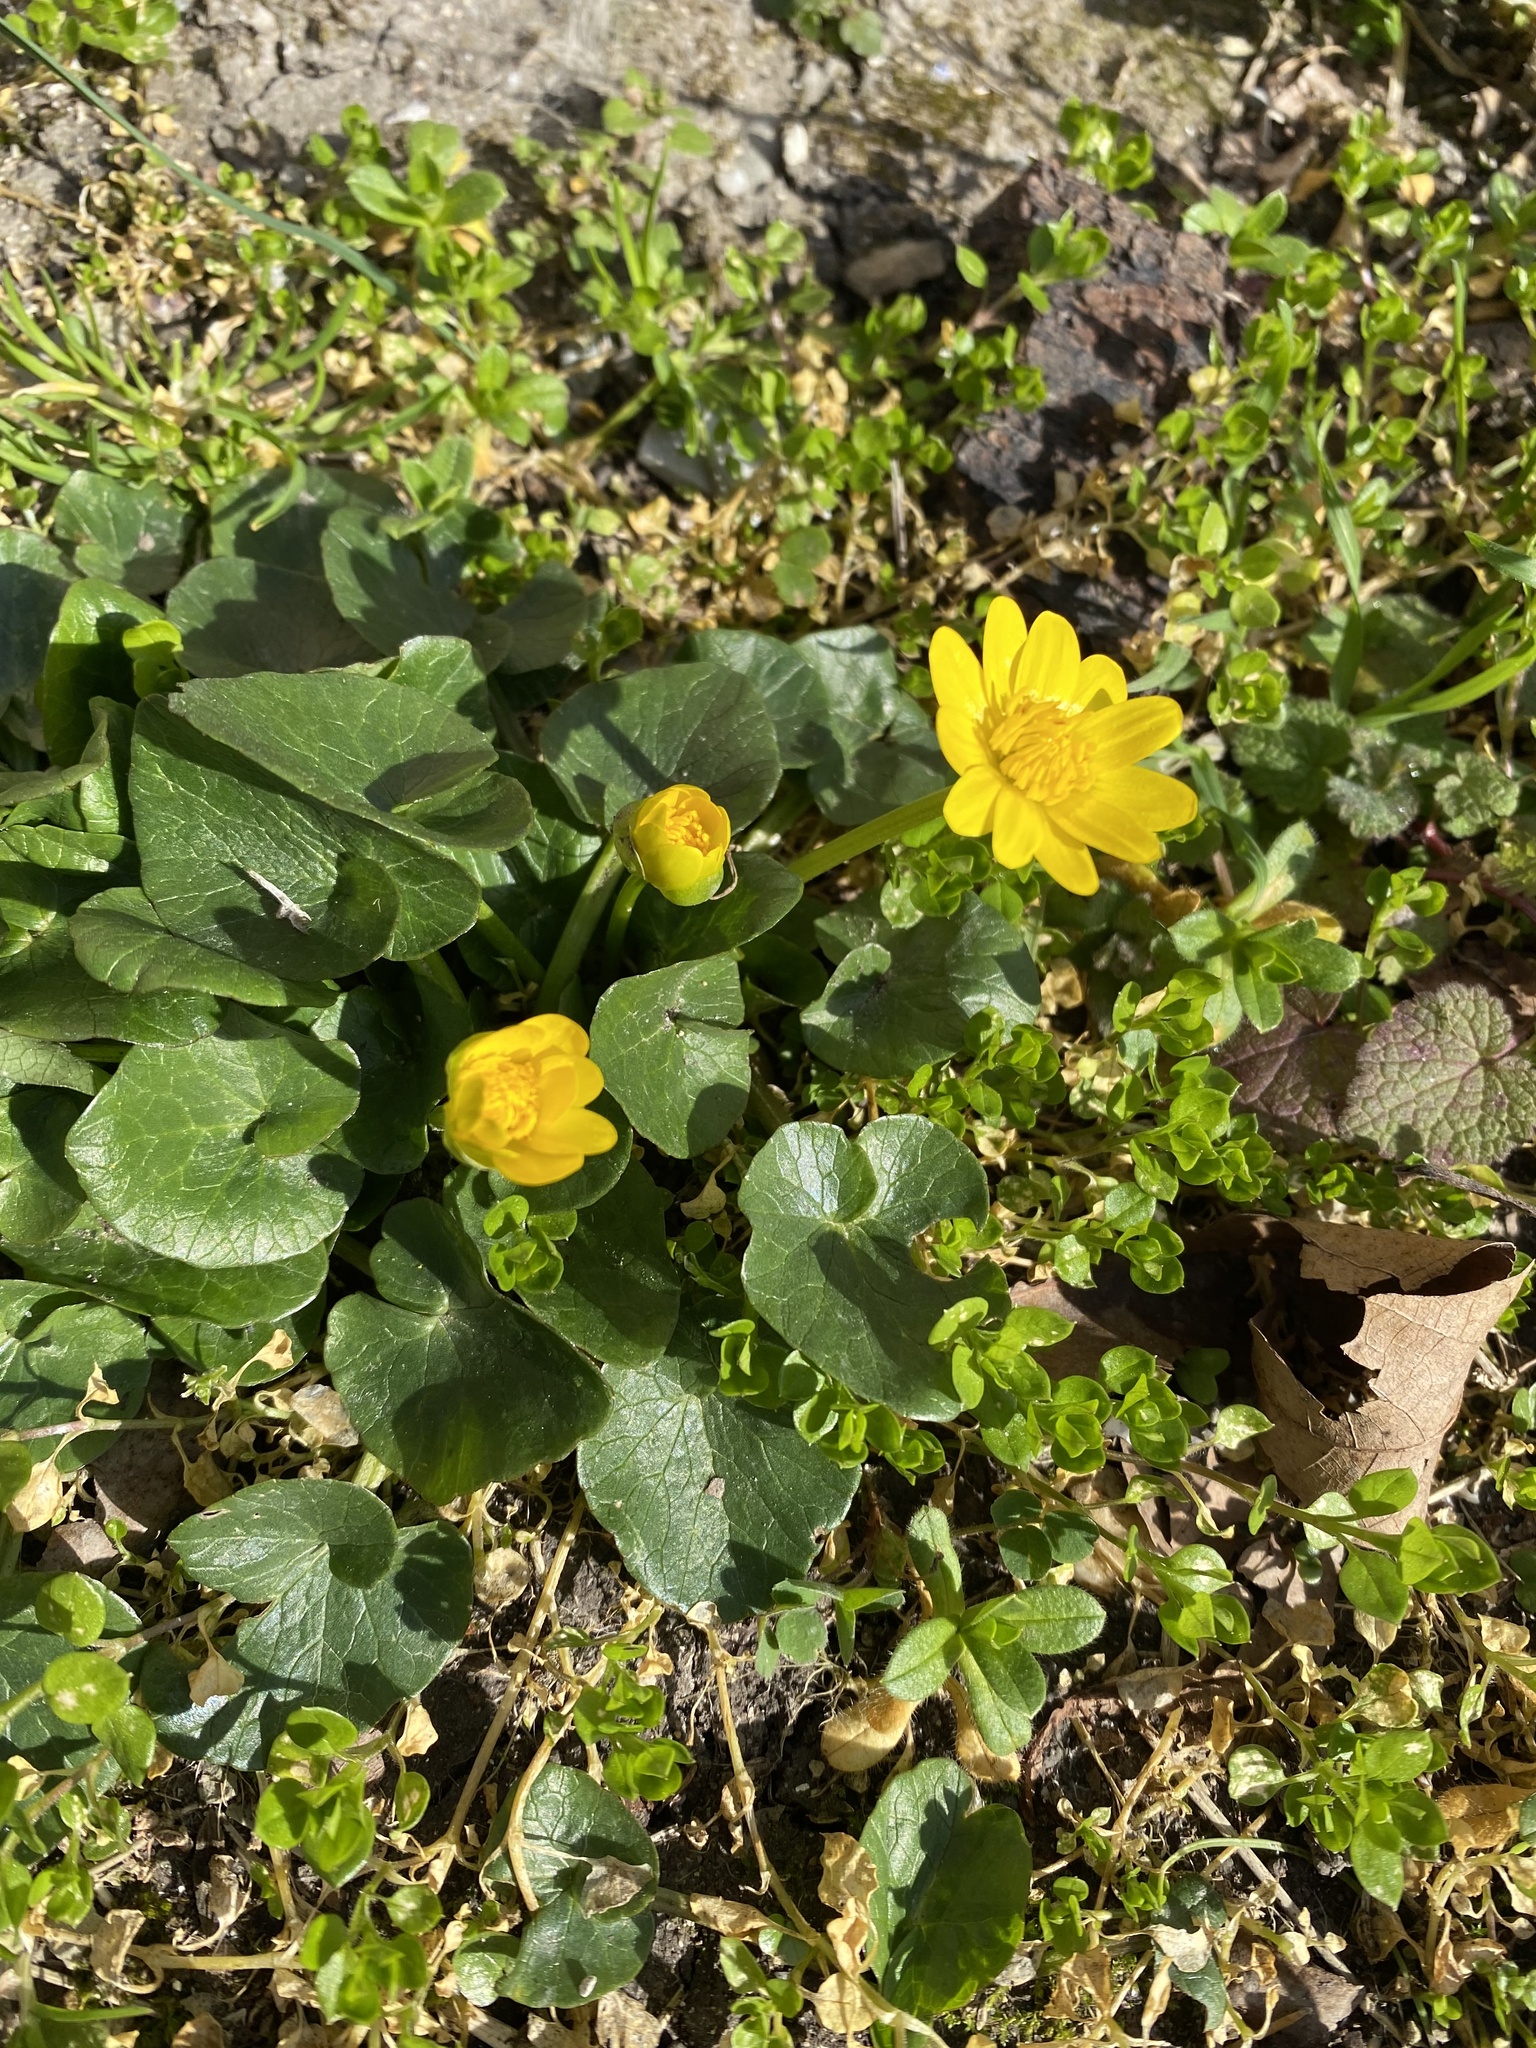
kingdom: Plantae
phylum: Tracheophyta
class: Magnoliopsida
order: Ranunculales
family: Ranunculaceae
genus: Ficaria
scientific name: Ficaria verna
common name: Lesser celandine
